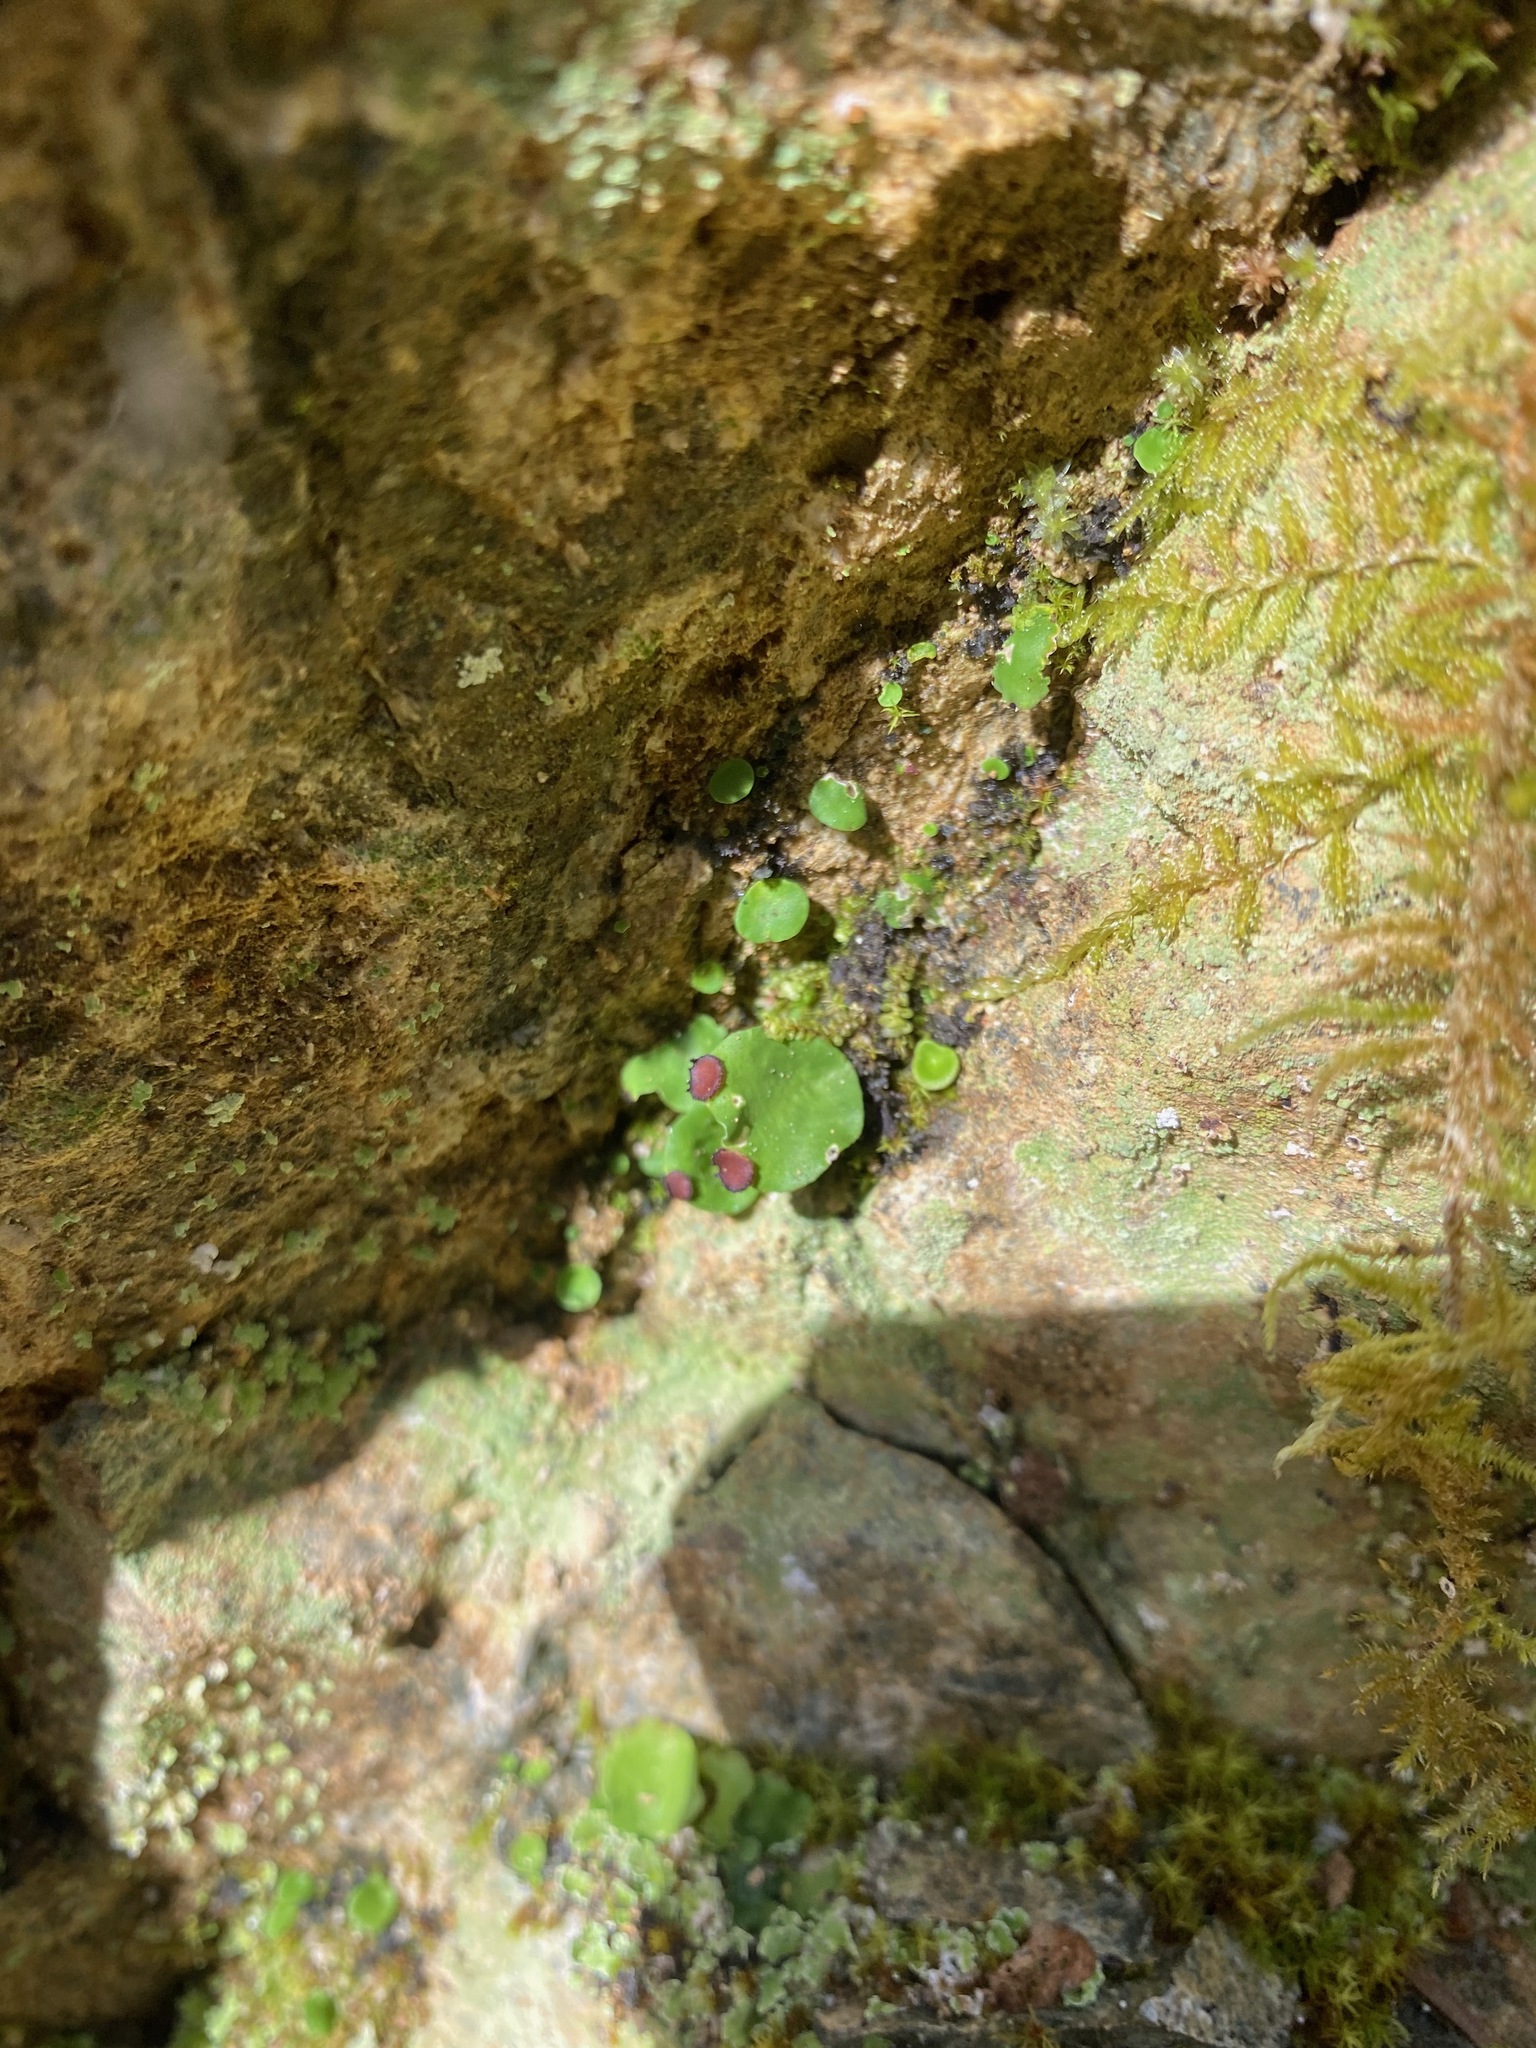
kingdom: Fungi
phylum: Ascomycota
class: Lecanoromycetes
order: Peltigerales
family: Peltigeraceae
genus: Peltigera
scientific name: Peltigera venosa
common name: Pixie gowns lichen
